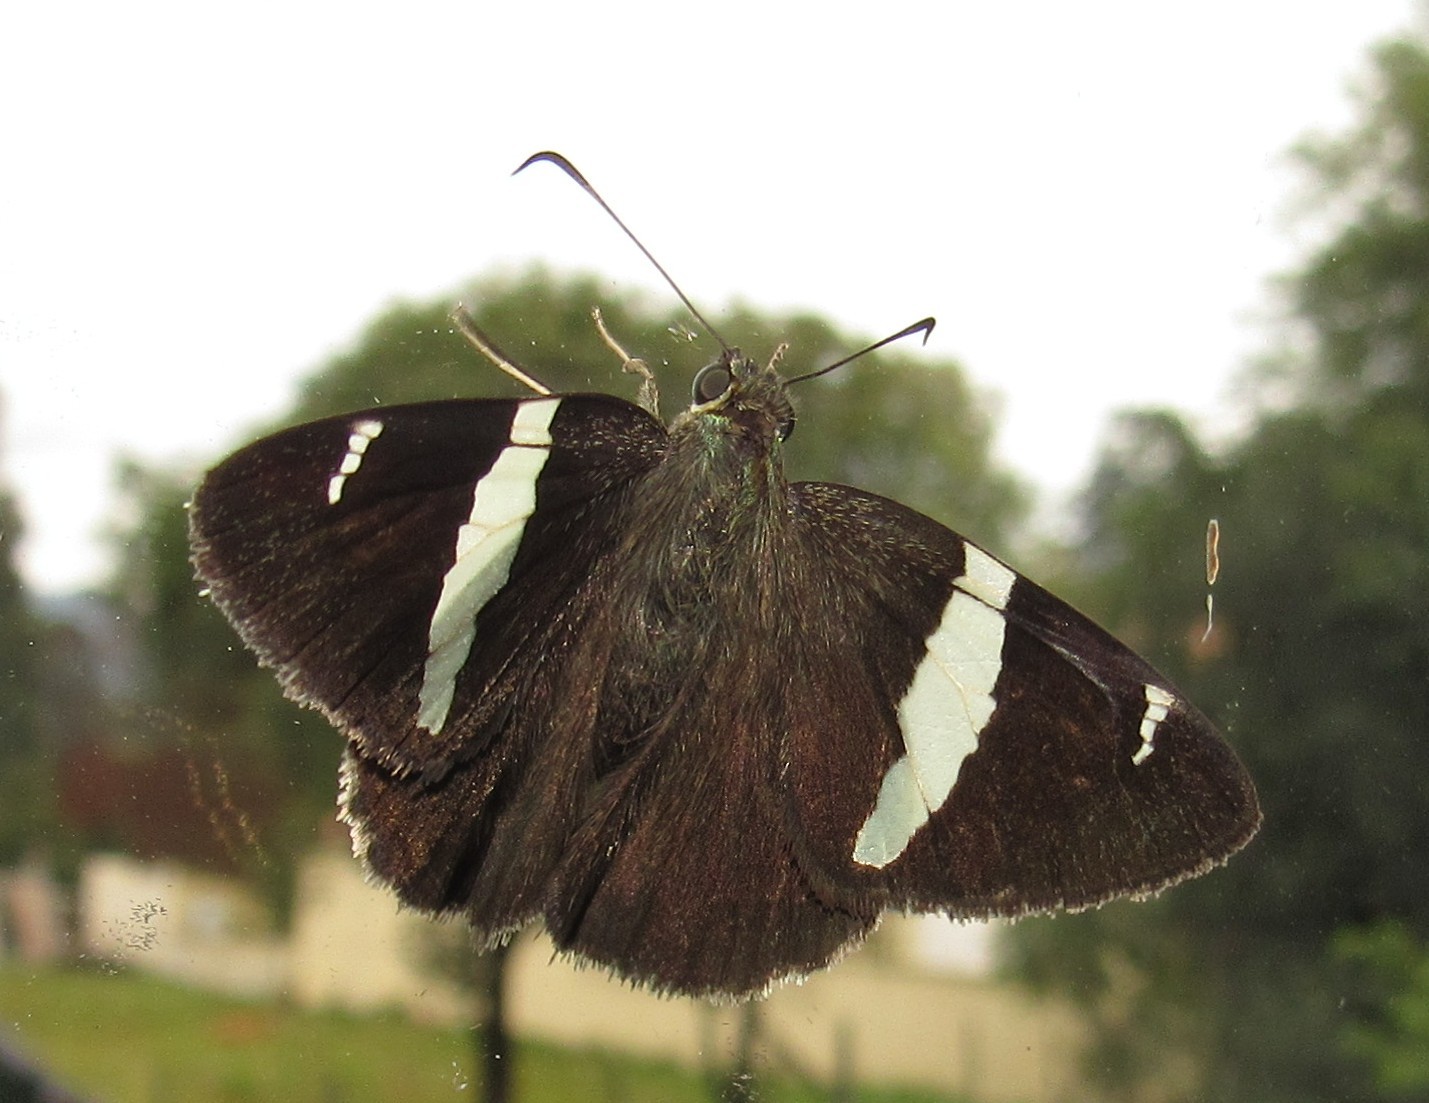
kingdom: Animalia
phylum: Arthropoda
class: Insecta
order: Lepidoptera
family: Hesperiidae
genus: Autochton
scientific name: Autochton integrifascia
